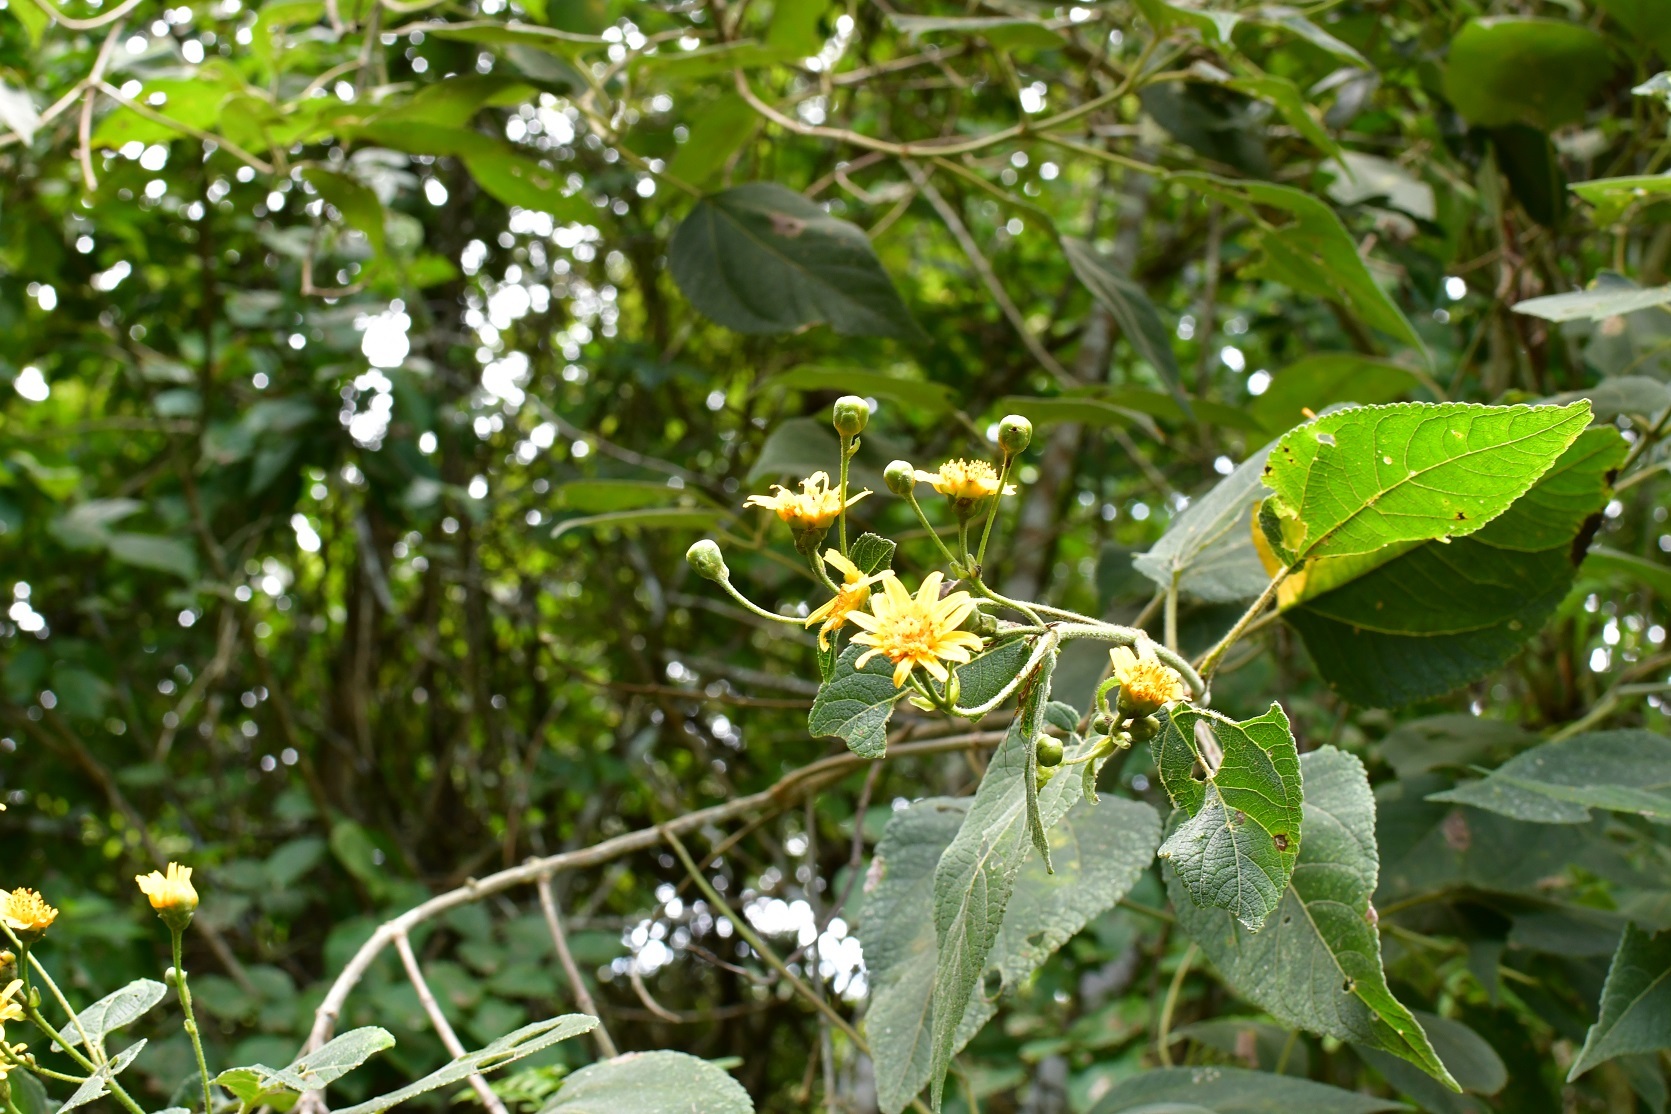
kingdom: Plantae
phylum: Tracheophyta
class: Magnoliopsida
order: Asterales
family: Asteraceae
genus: Lasianthaea
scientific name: Lasianthaea fruticosa
